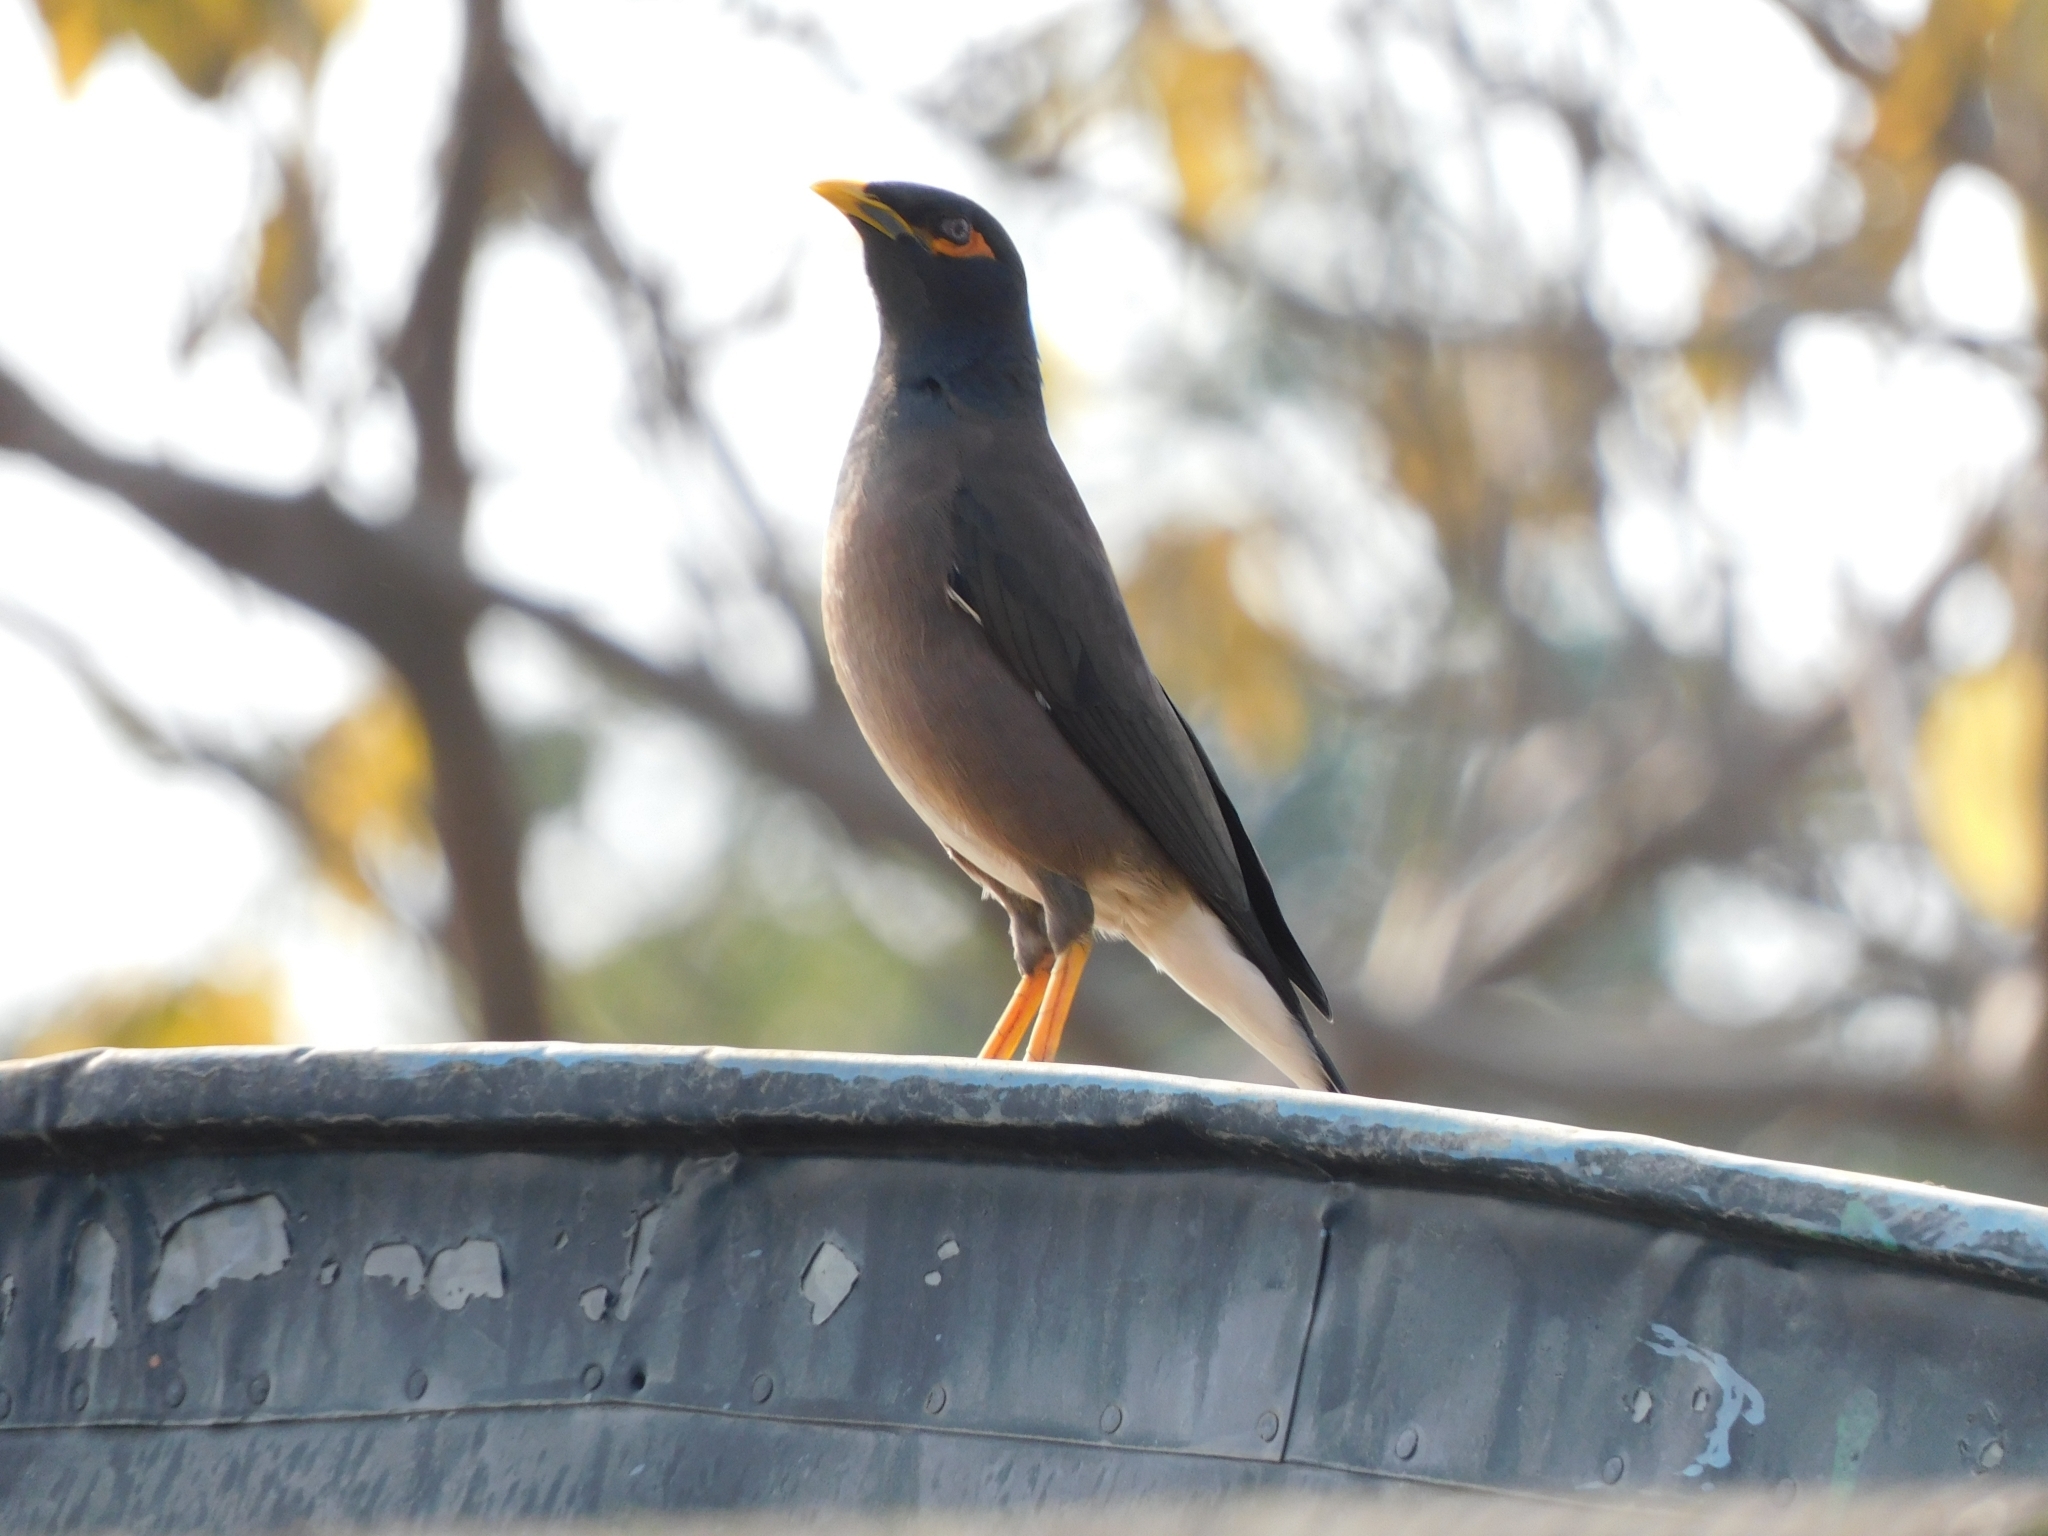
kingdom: Animalia
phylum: Chordata
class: Aves
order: Passeriformes
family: Sturnidae
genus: Acridotheres
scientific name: Acridotheres tristis
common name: Common myna
